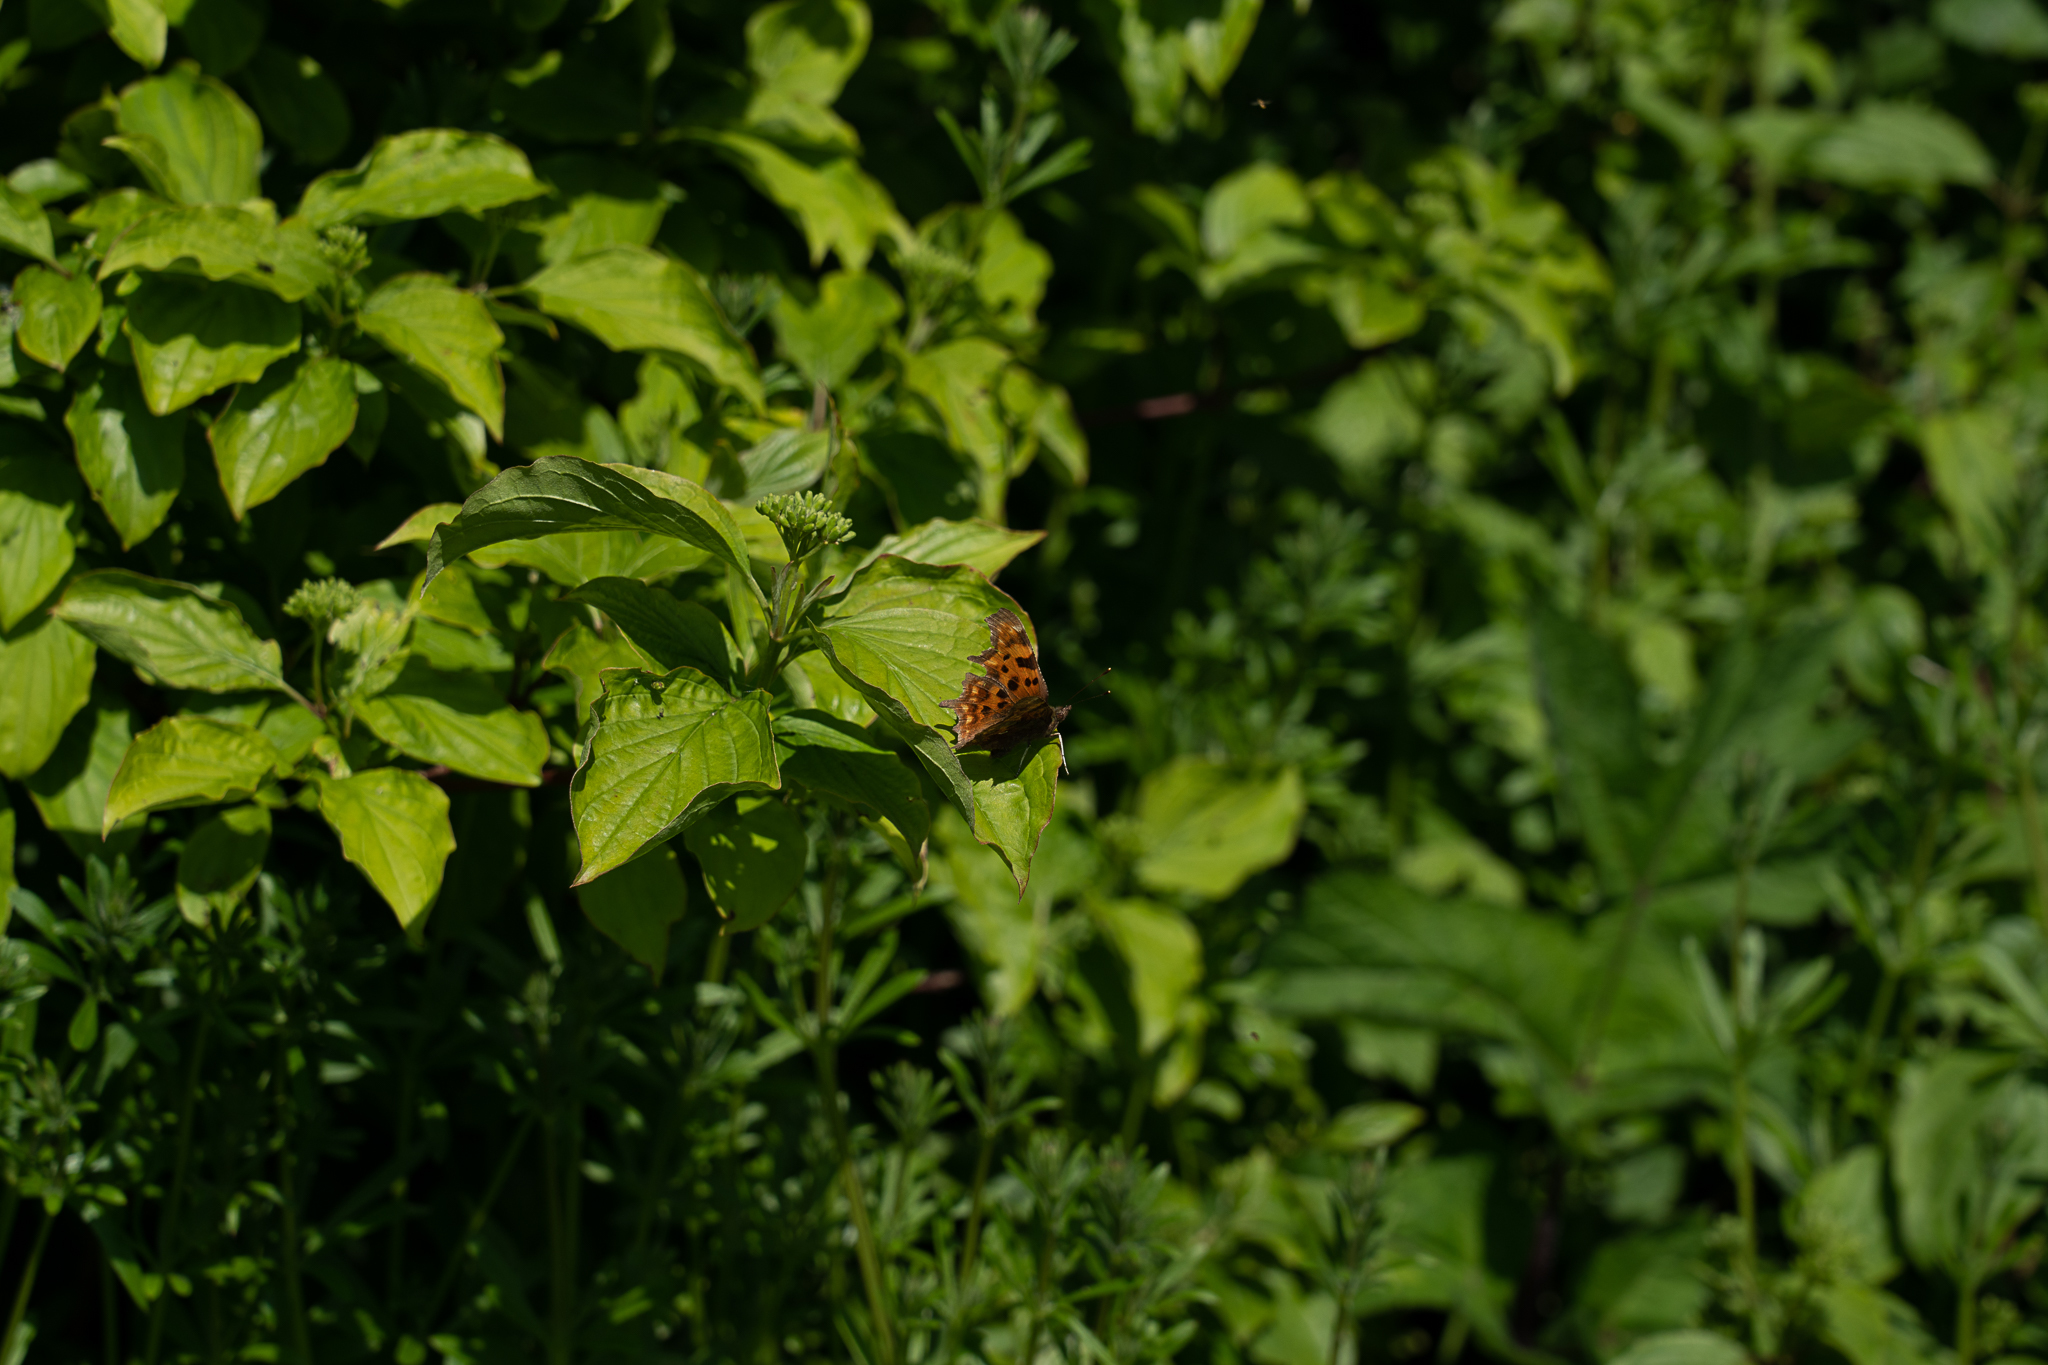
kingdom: Animalia
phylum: Arthropoda
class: Insecta
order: Lepidoptera
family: Nymphalidae
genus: Polygonia
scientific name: Polygonia c-album
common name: Comma
